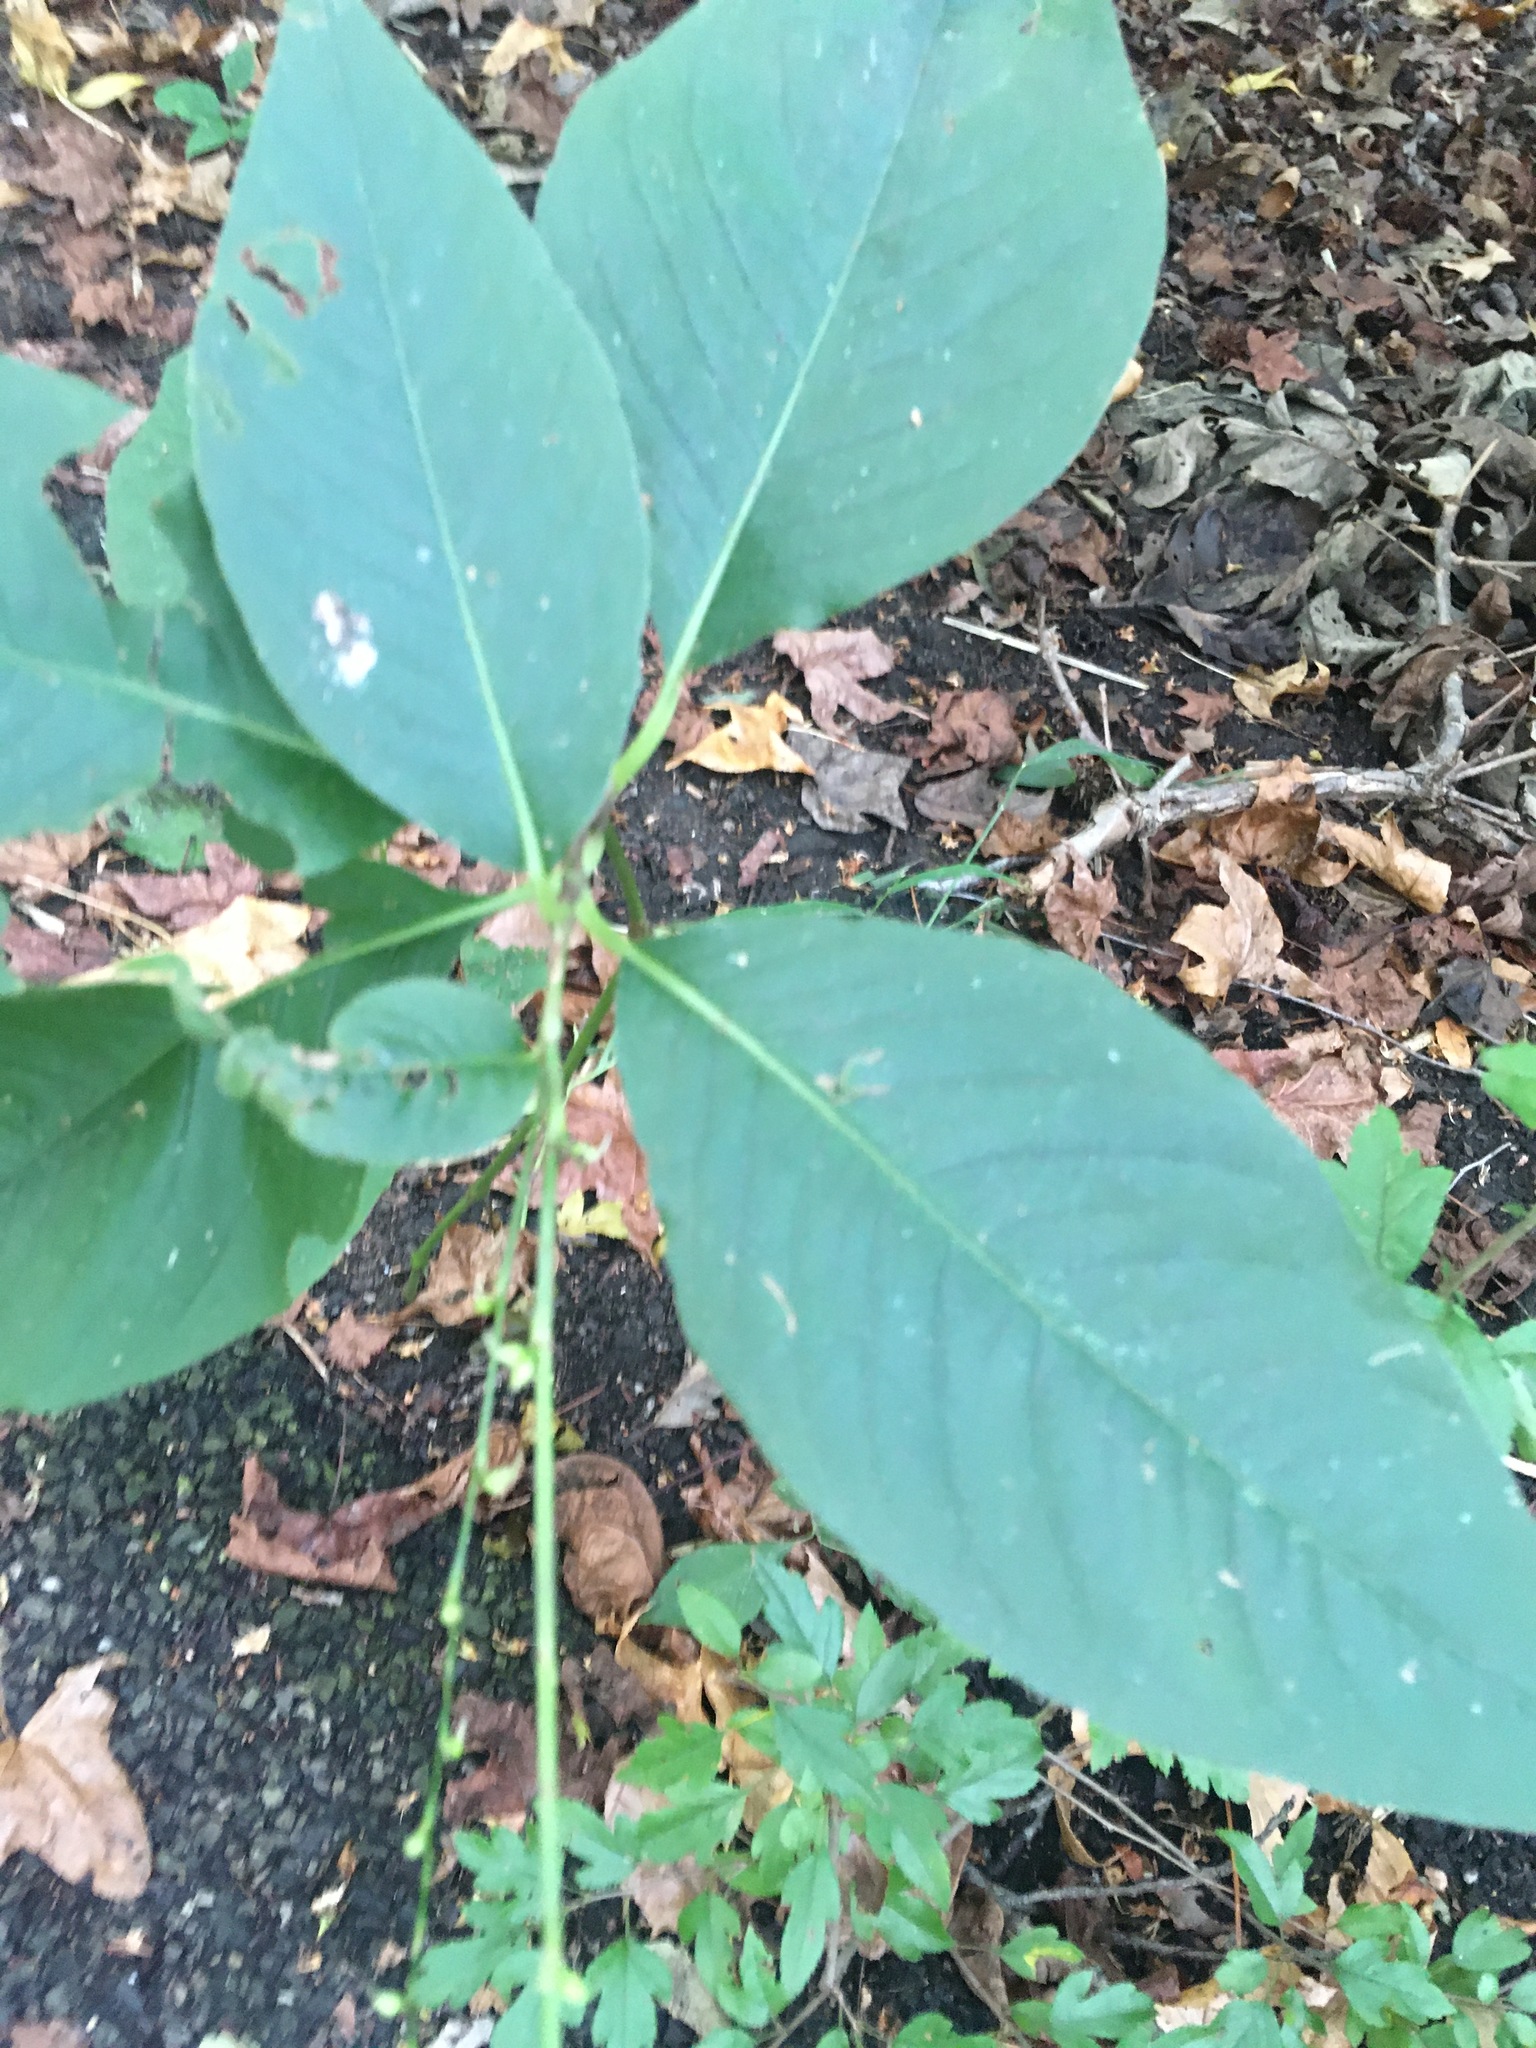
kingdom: Plantae
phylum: Tracheophyta
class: Magnoliopsida
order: Caryophyllales
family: Polygonaceae
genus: Persicaria
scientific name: Persicaria virginiana
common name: Jumpseed
